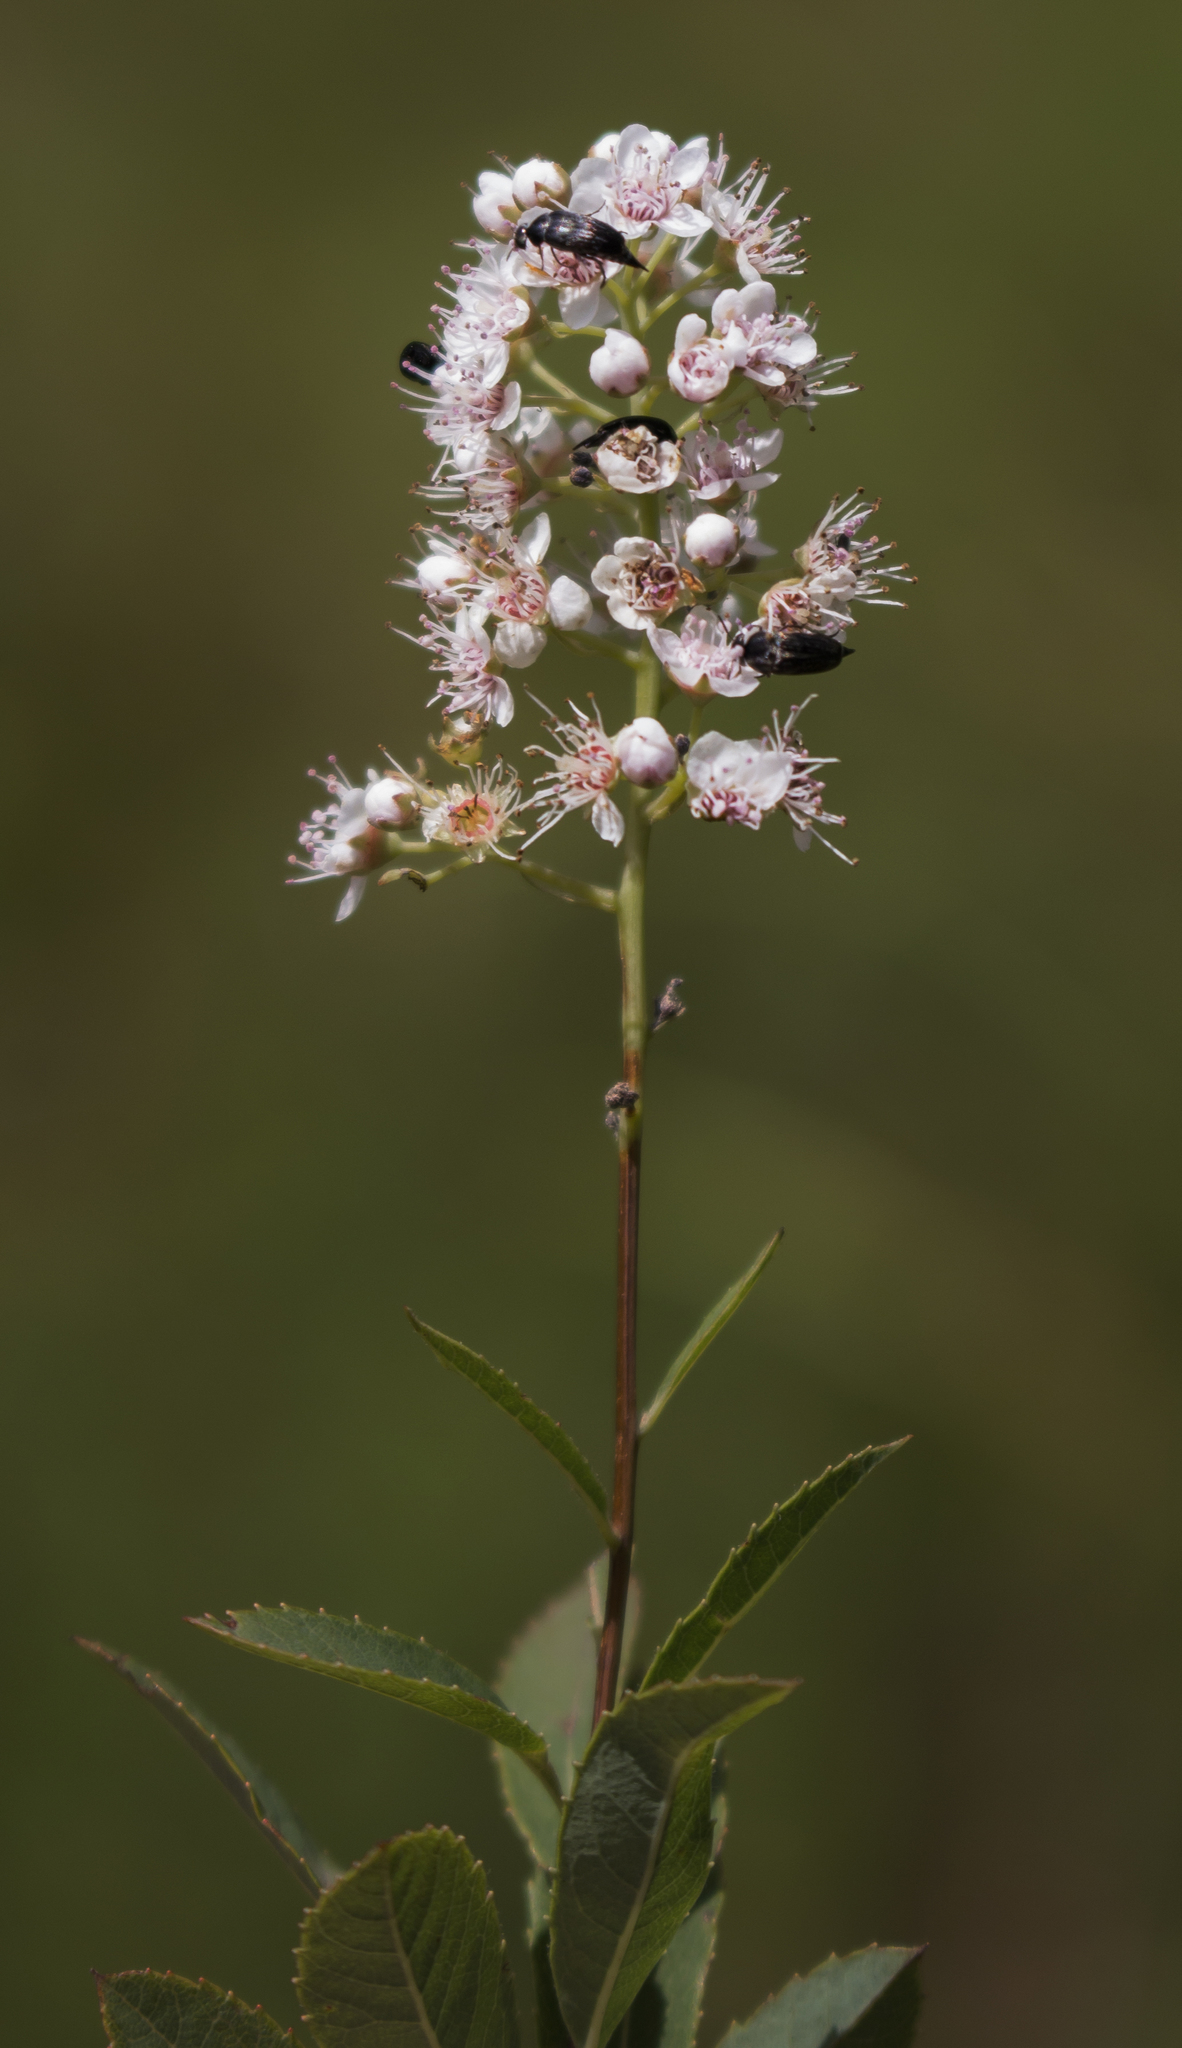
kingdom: Plantae
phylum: Tracheophyta
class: Magnoliopsida
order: Rosales
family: Rosaceae
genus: Spiraea
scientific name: Spiraea alba
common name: Pale bridewort
